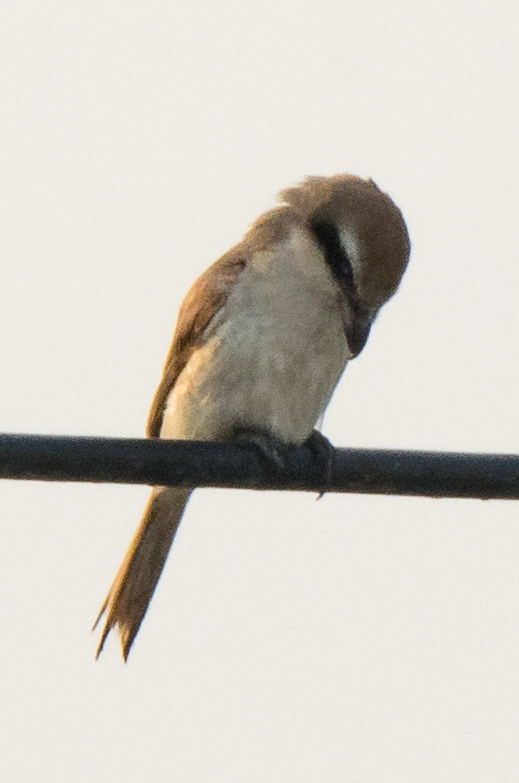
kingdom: Animalia
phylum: Chordata
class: Aves
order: Passeriformes
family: Laniidae
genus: Lanius
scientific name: Lanius cristatus
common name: Brown shrike
